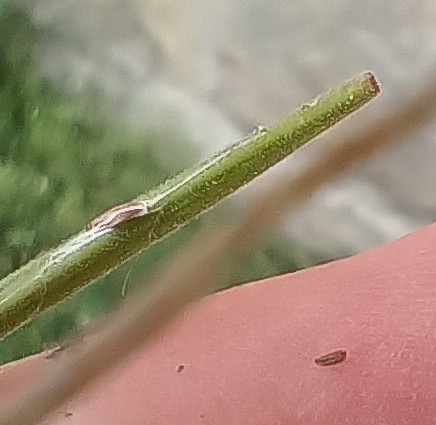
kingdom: Plantae
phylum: Tracheophyta
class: Magnoliopsida
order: Myrtales
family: Onagraceae
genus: Epilobium
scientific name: Epilobium montanum
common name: Broad-leaved willowherb
